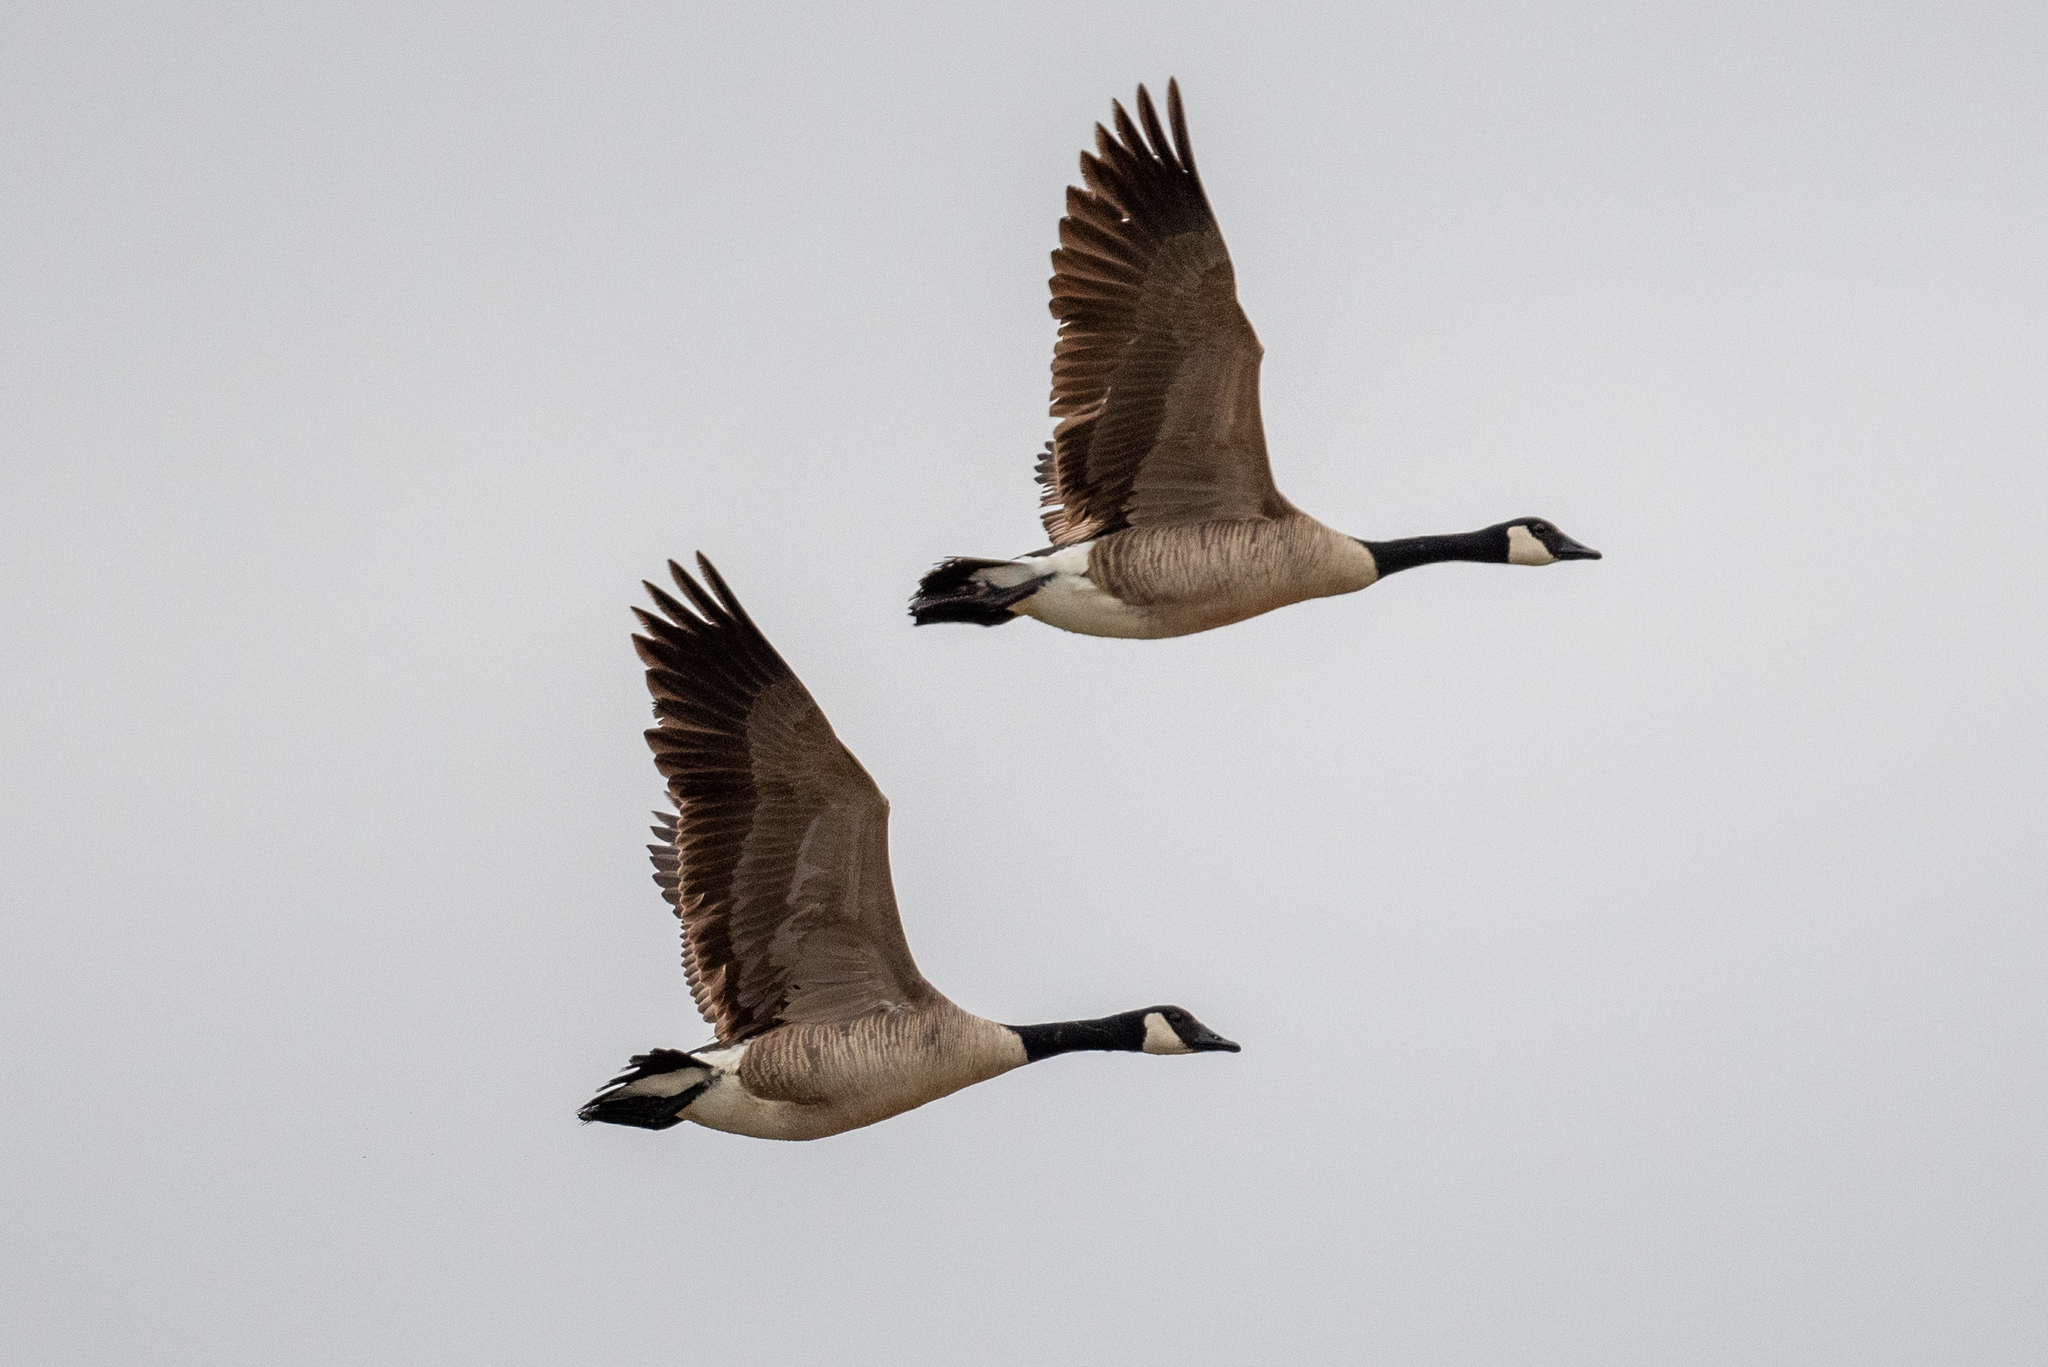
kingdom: Animalia
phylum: Chordata
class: Aves
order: Anseriformes
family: Anatidae
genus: Branta
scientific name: Branta canadensis
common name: Canada goose
